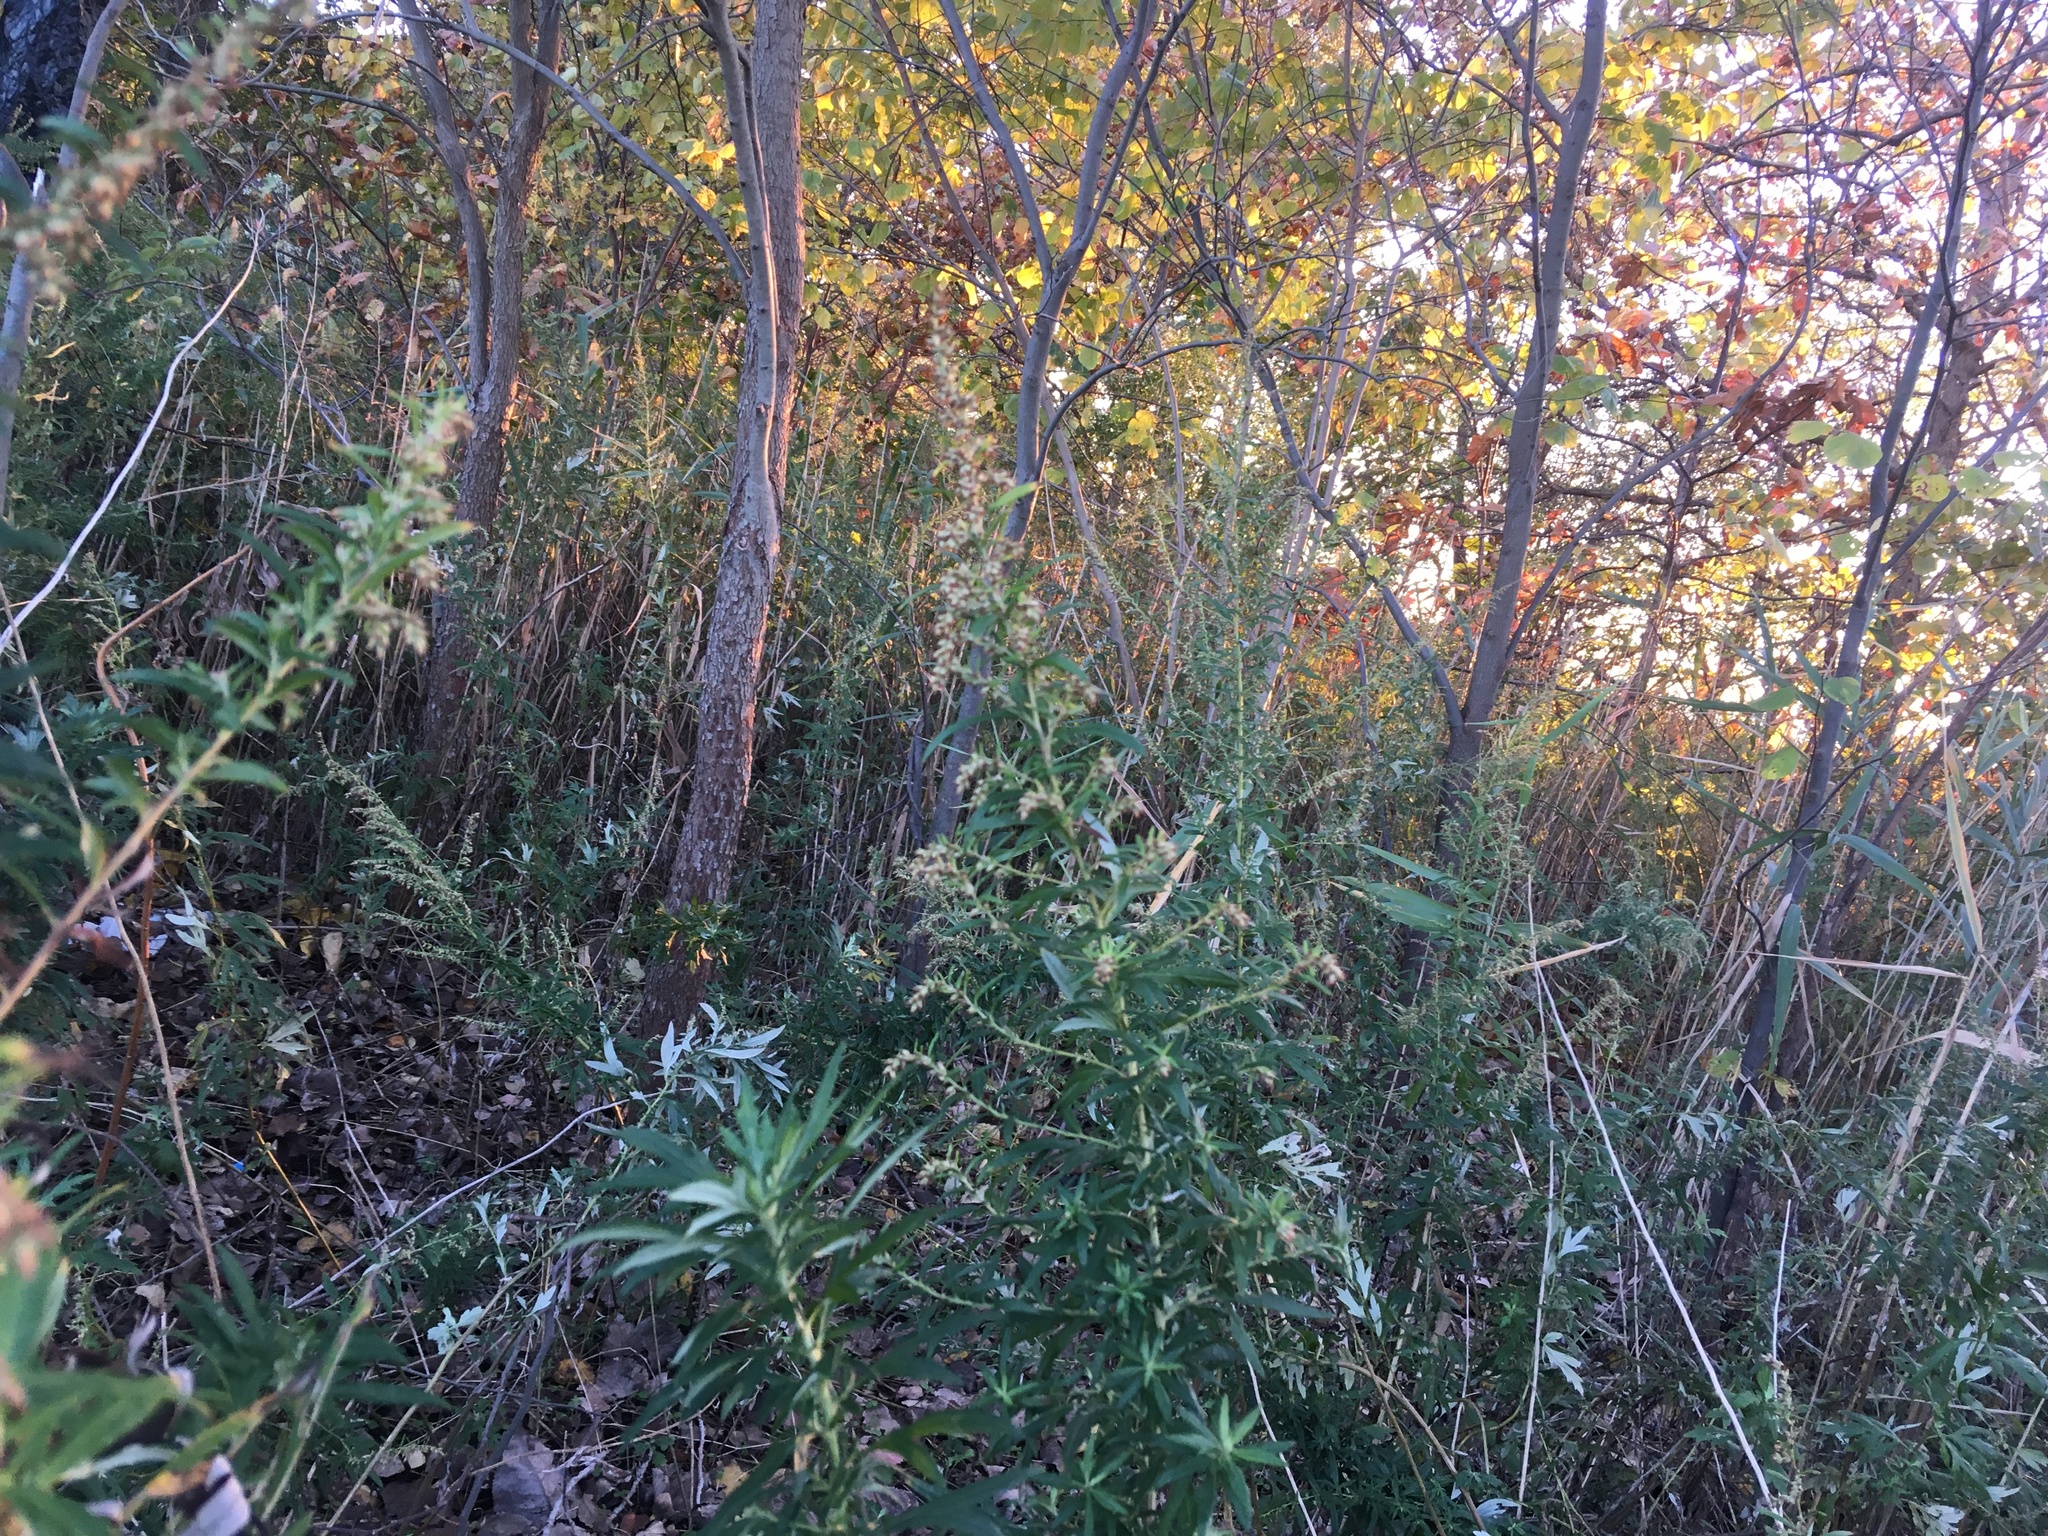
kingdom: Plantae
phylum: Tracheophyta
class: Magnoliopsida
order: Asterales
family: Asteraceae
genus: Artemisia
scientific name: Artemisia vulgaris
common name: Mugwort
